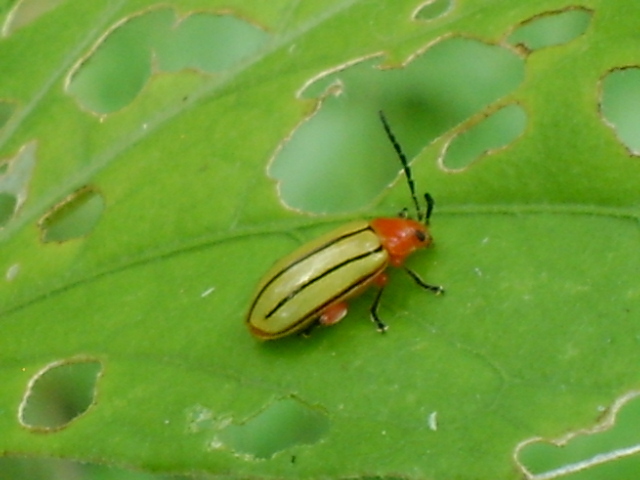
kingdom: Animalia
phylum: Arthropoda
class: Insecta
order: Coleoptera
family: Chrysomelidae
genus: Disonycha
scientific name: Disonycha stenosticha
